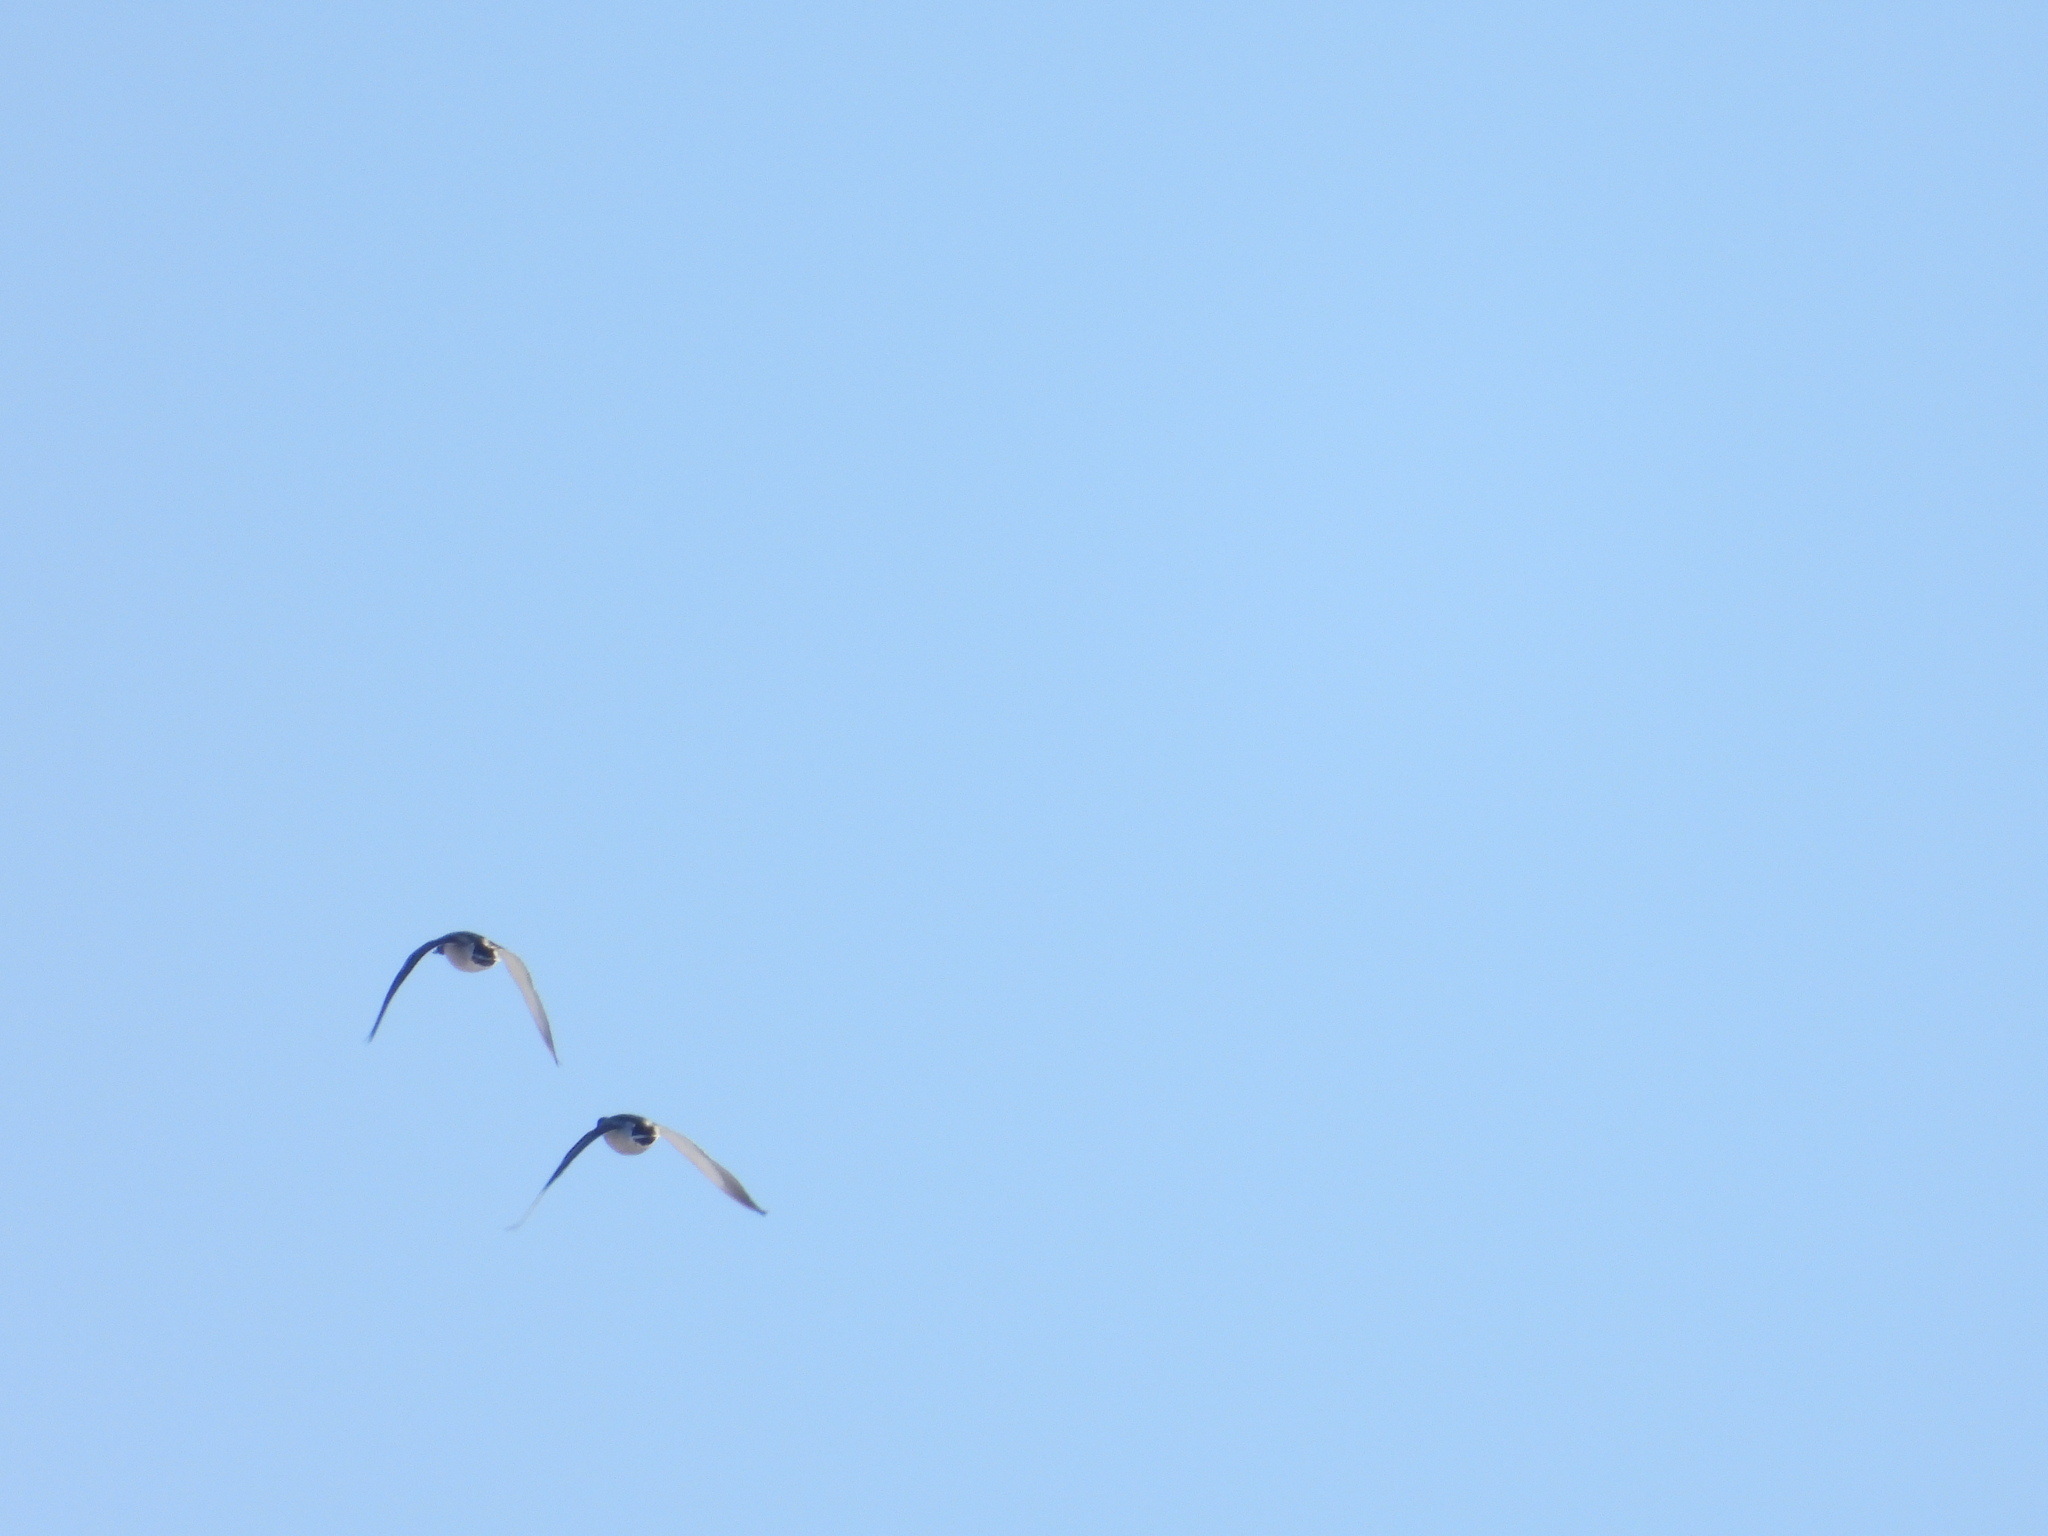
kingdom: Animalia
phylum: Chordata
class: Aves
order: Anseriformes
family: Anatidae
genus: Anas
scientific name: Anas platyrhynchos
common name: Mallard
